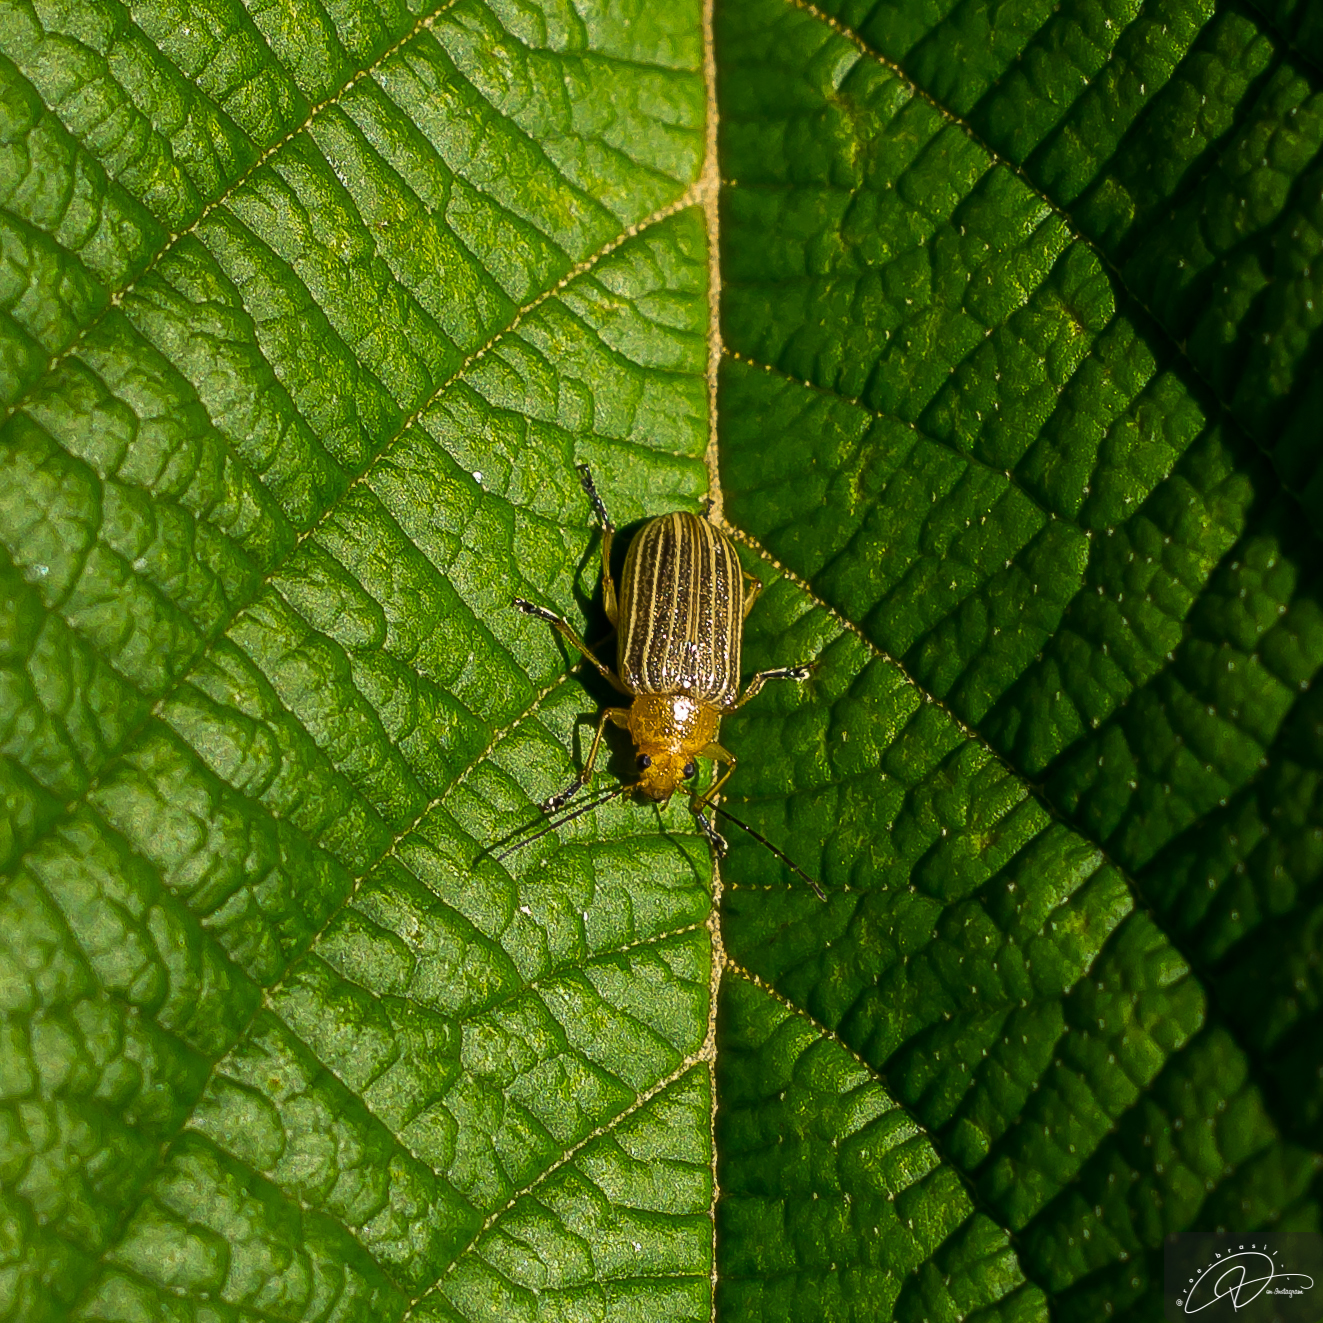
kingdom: Animalia
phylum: Arthropoda
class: Insecta
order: Coleoptera
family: Chrysomelidae
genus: Metaxyonycha
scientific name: Metaxyonycha
